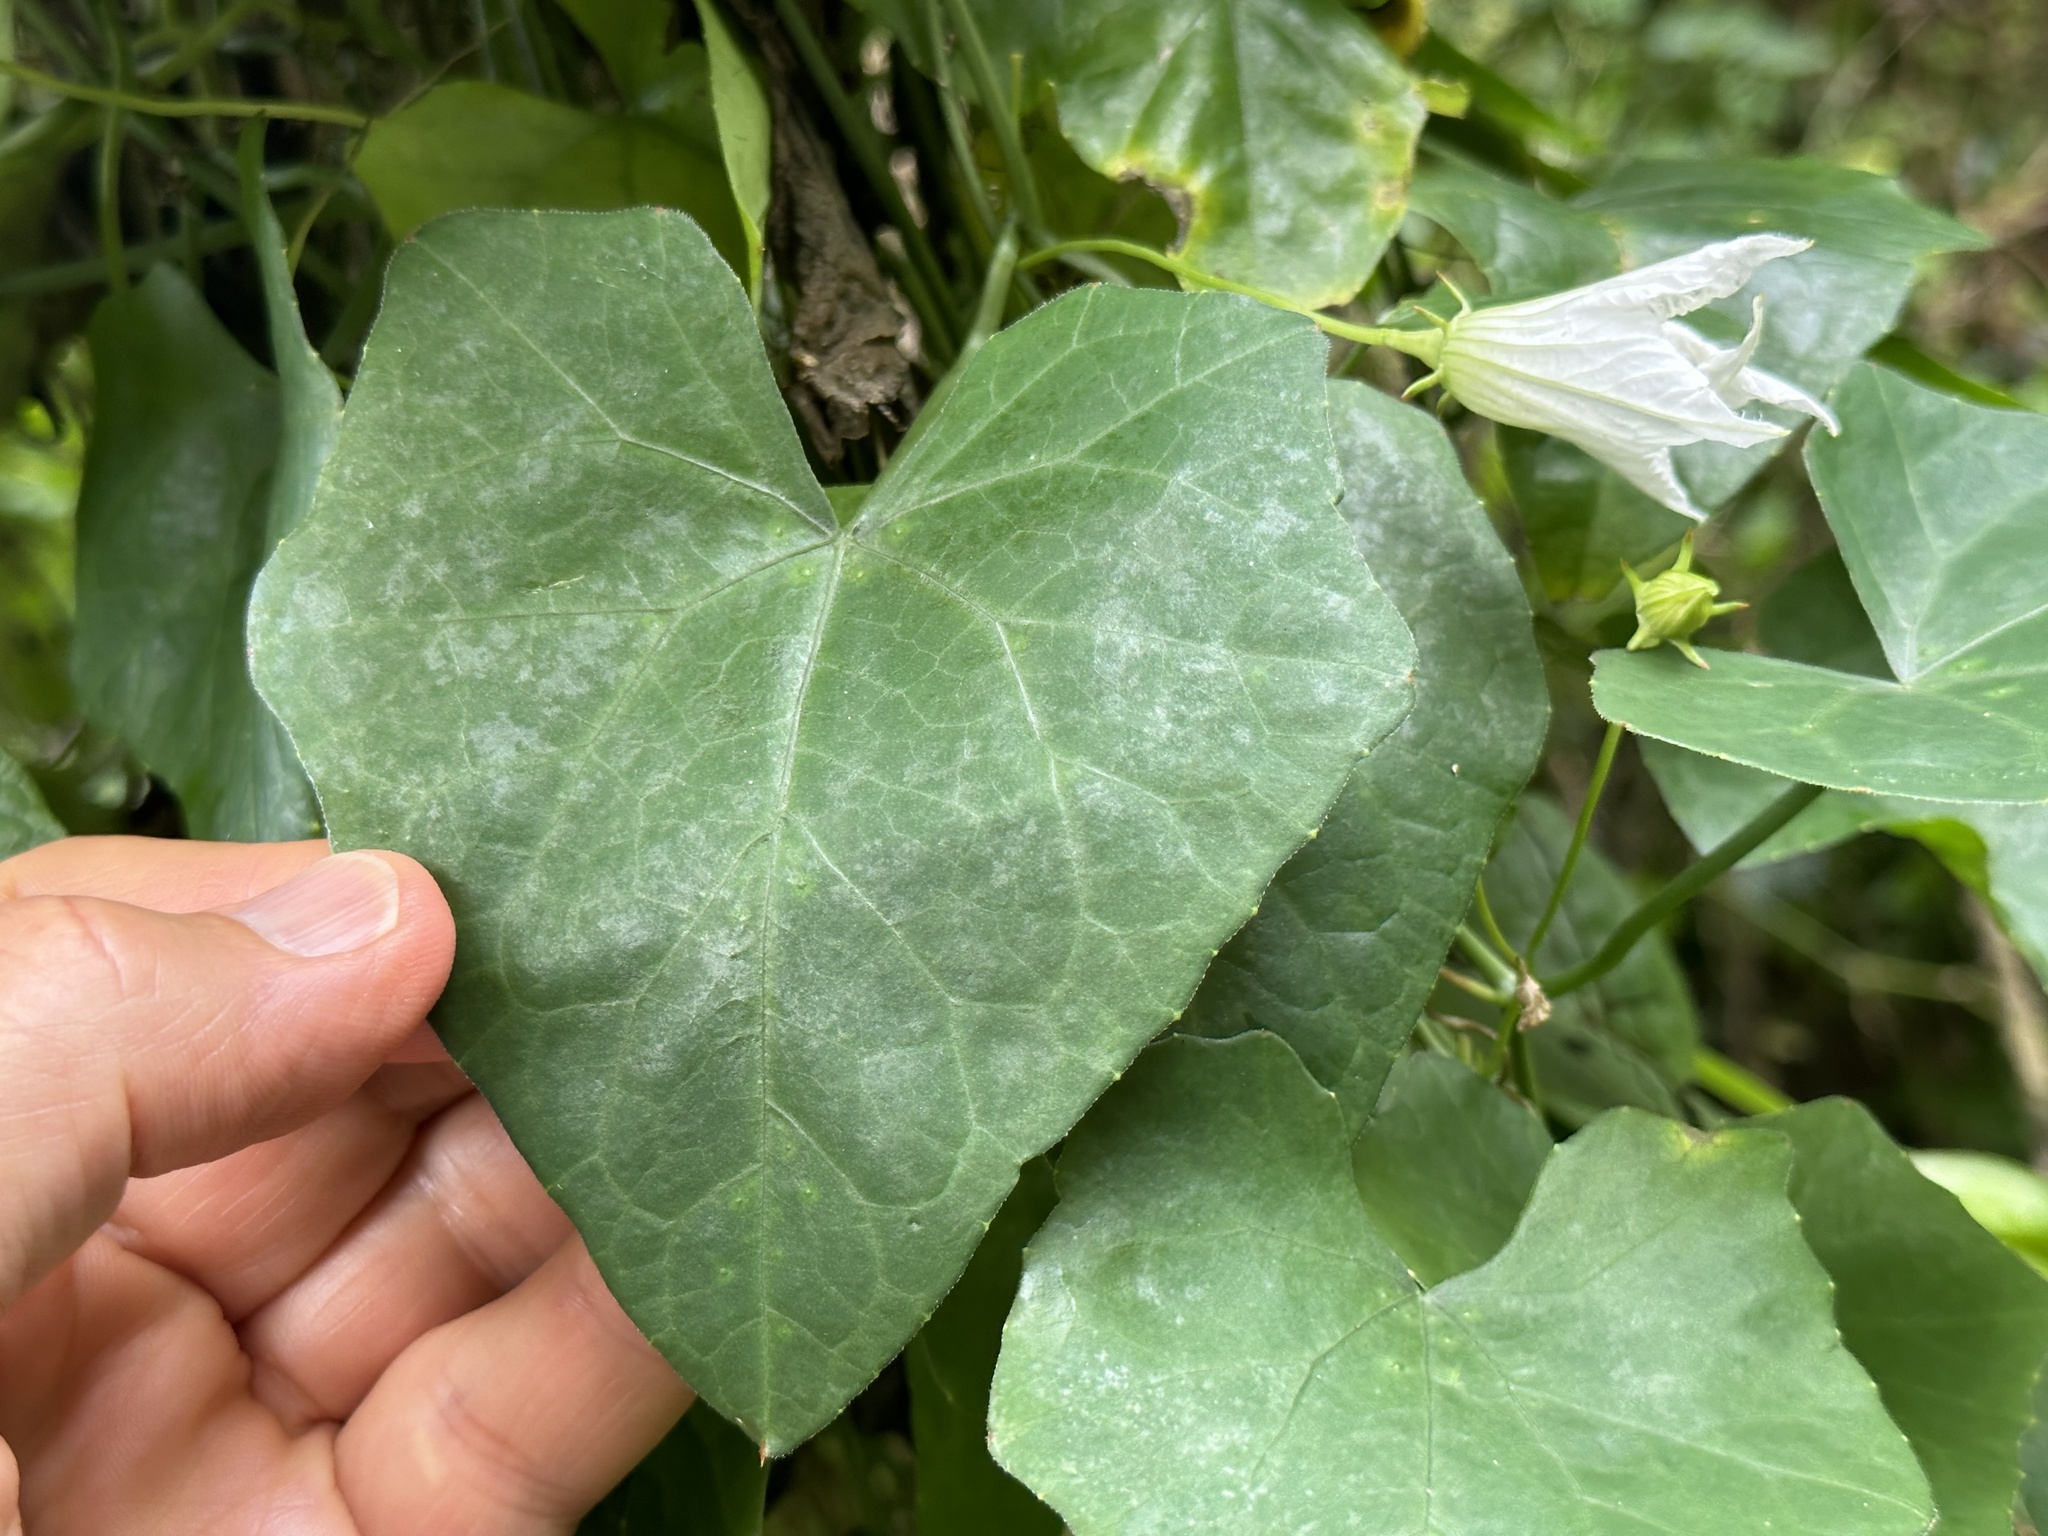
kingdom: Plantae
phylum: Tracheophyta
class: Magnoliopsida
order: Cucurbitales
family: Cucurbitaceae
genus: Coccinia
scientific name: Coccinia grandis
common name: Ivy gourd
